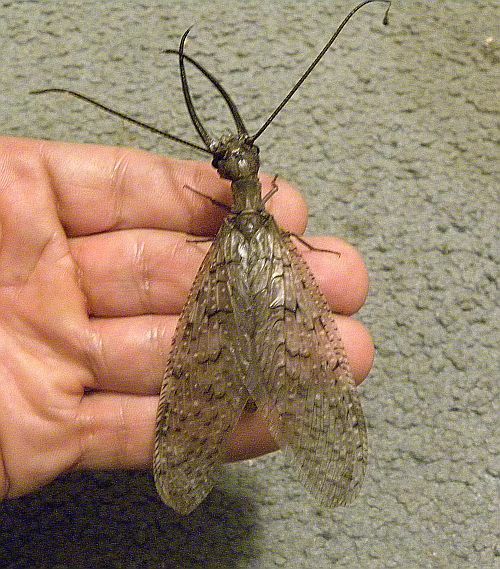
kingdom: Animalia
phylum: Arthropoda
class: Insecta
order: Megaloptera
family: Corydalidae
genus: Corydalus
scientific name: Corydalus cornutus
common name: Dobsonfly
